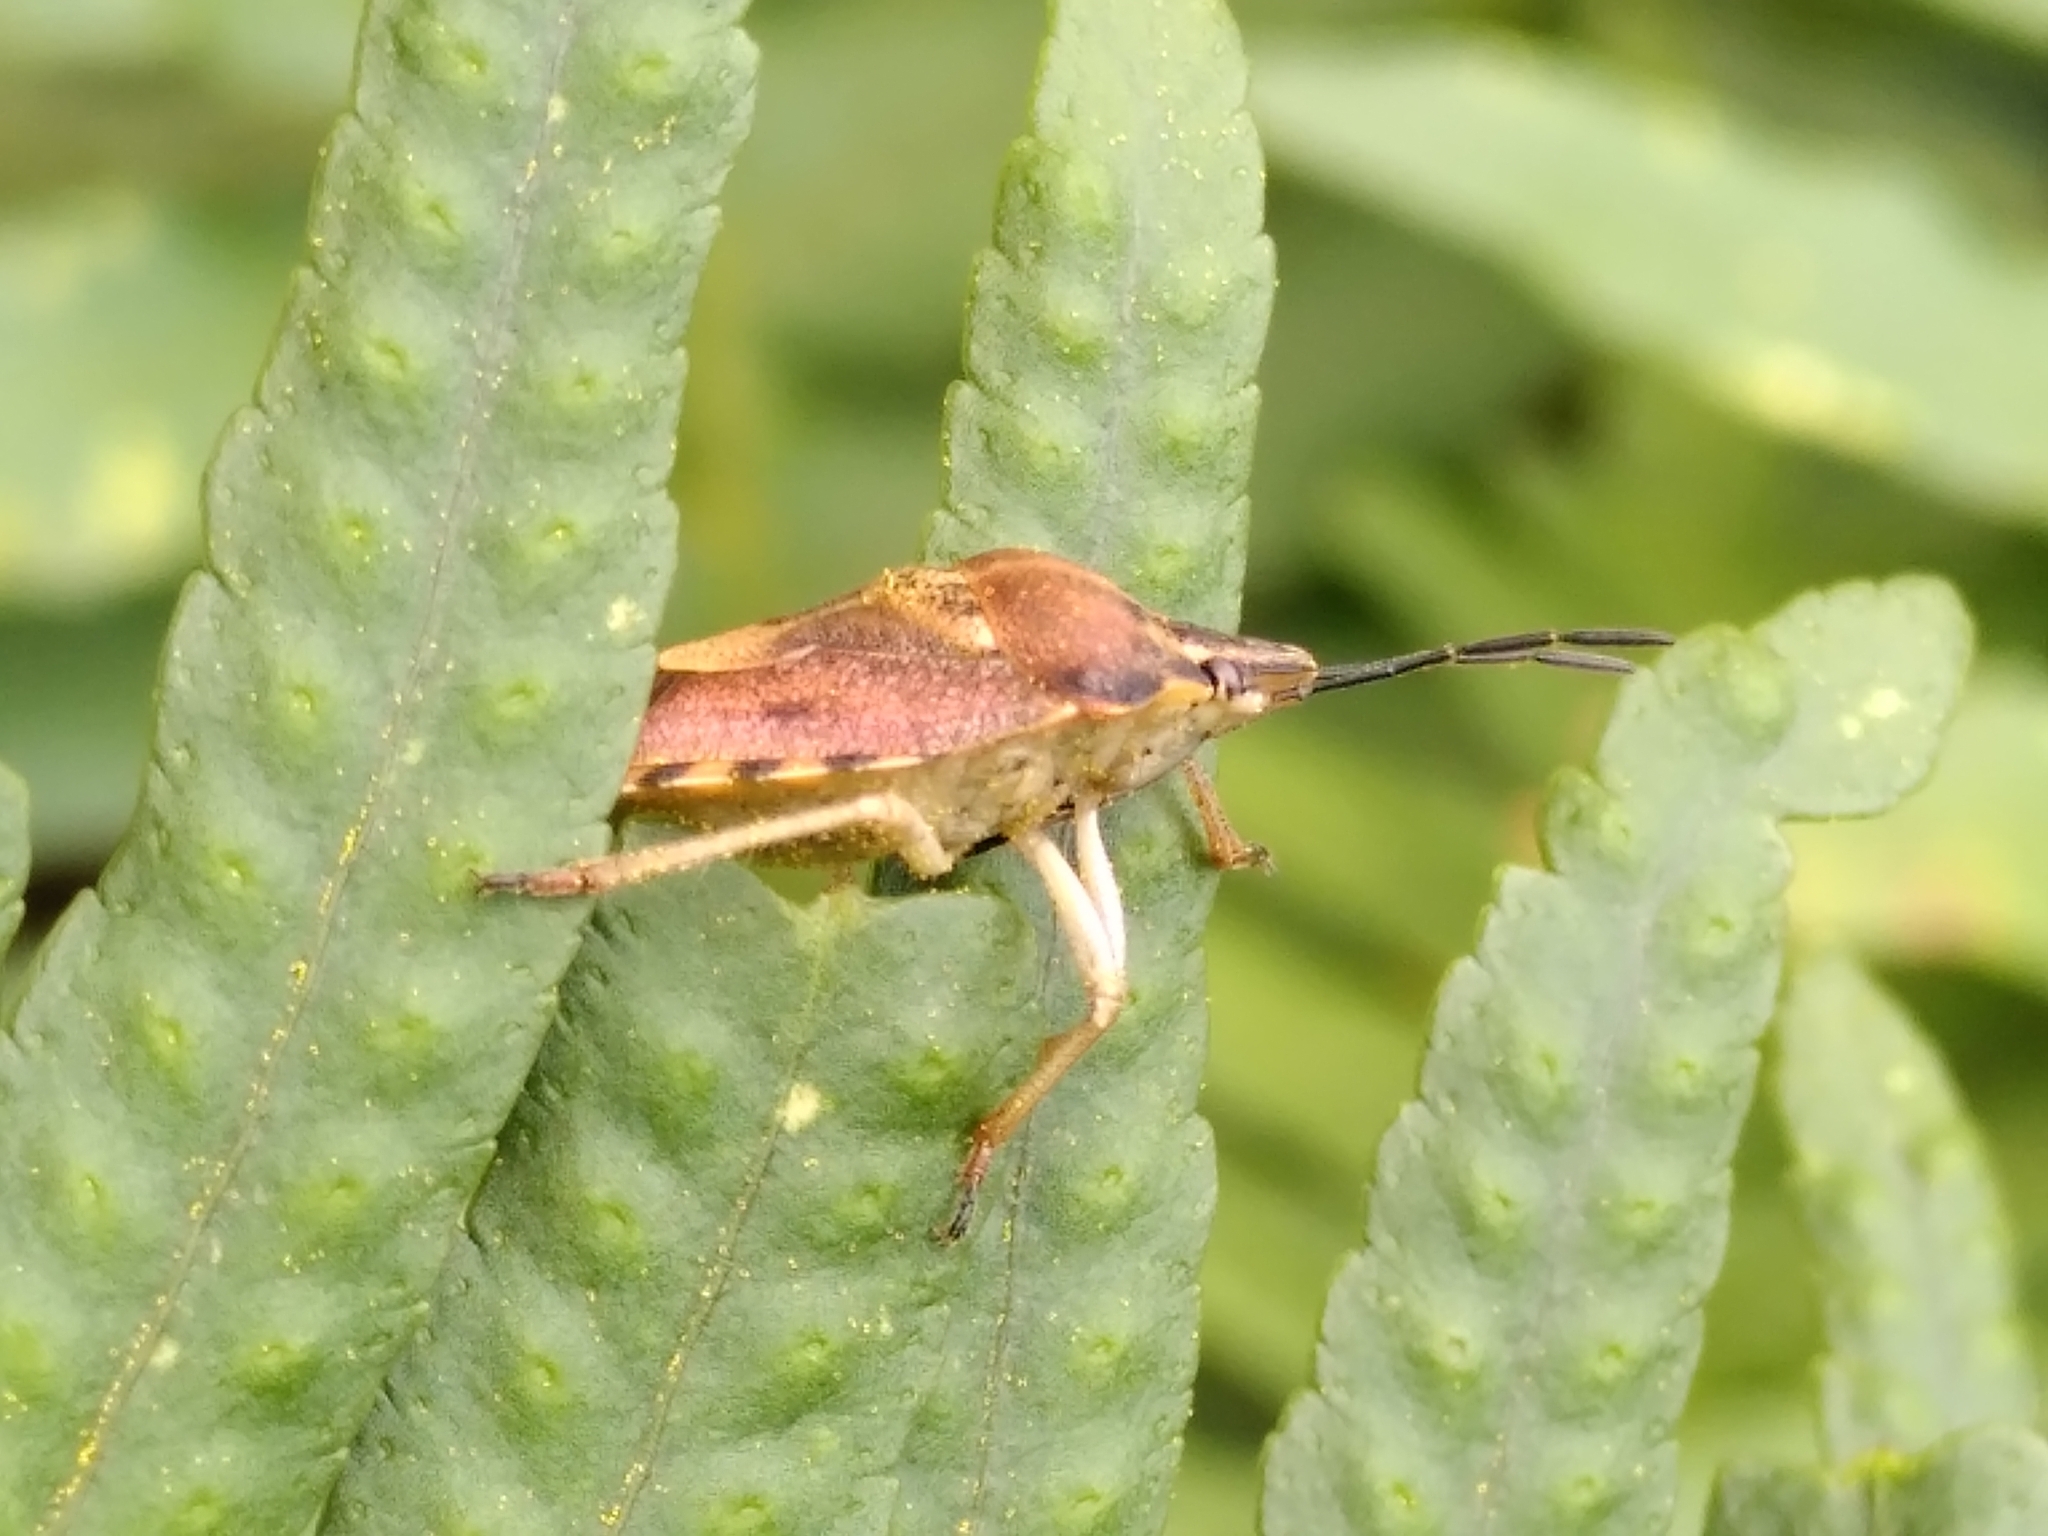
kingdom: Animalia
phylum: Arthropoda
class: Insecta
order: Hemiptera
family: Pentatomidae
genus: Carpocoris
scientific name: Carpocoris purpureipennis
